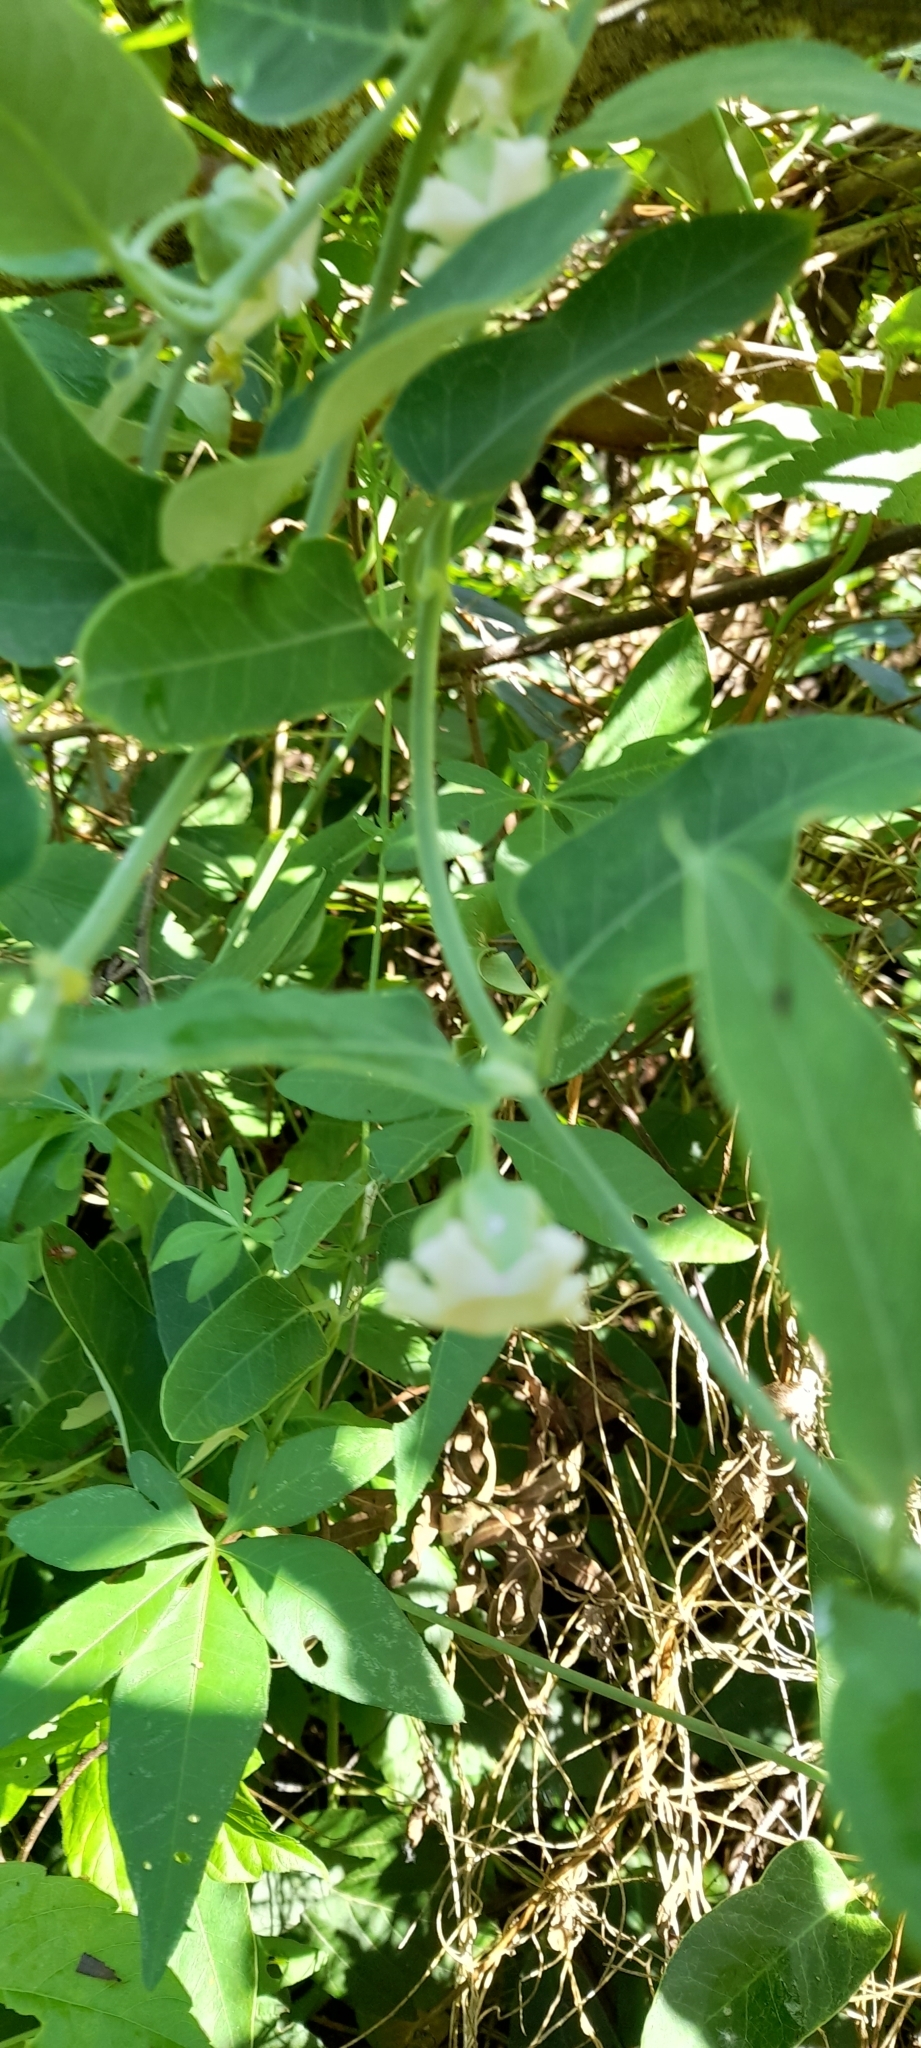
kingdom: Plantae
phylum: Tracheophyta
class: Magnoliopsida
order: Gentianales
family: Apocynaceae
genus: Araujia
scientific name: Araujia angustifolia
